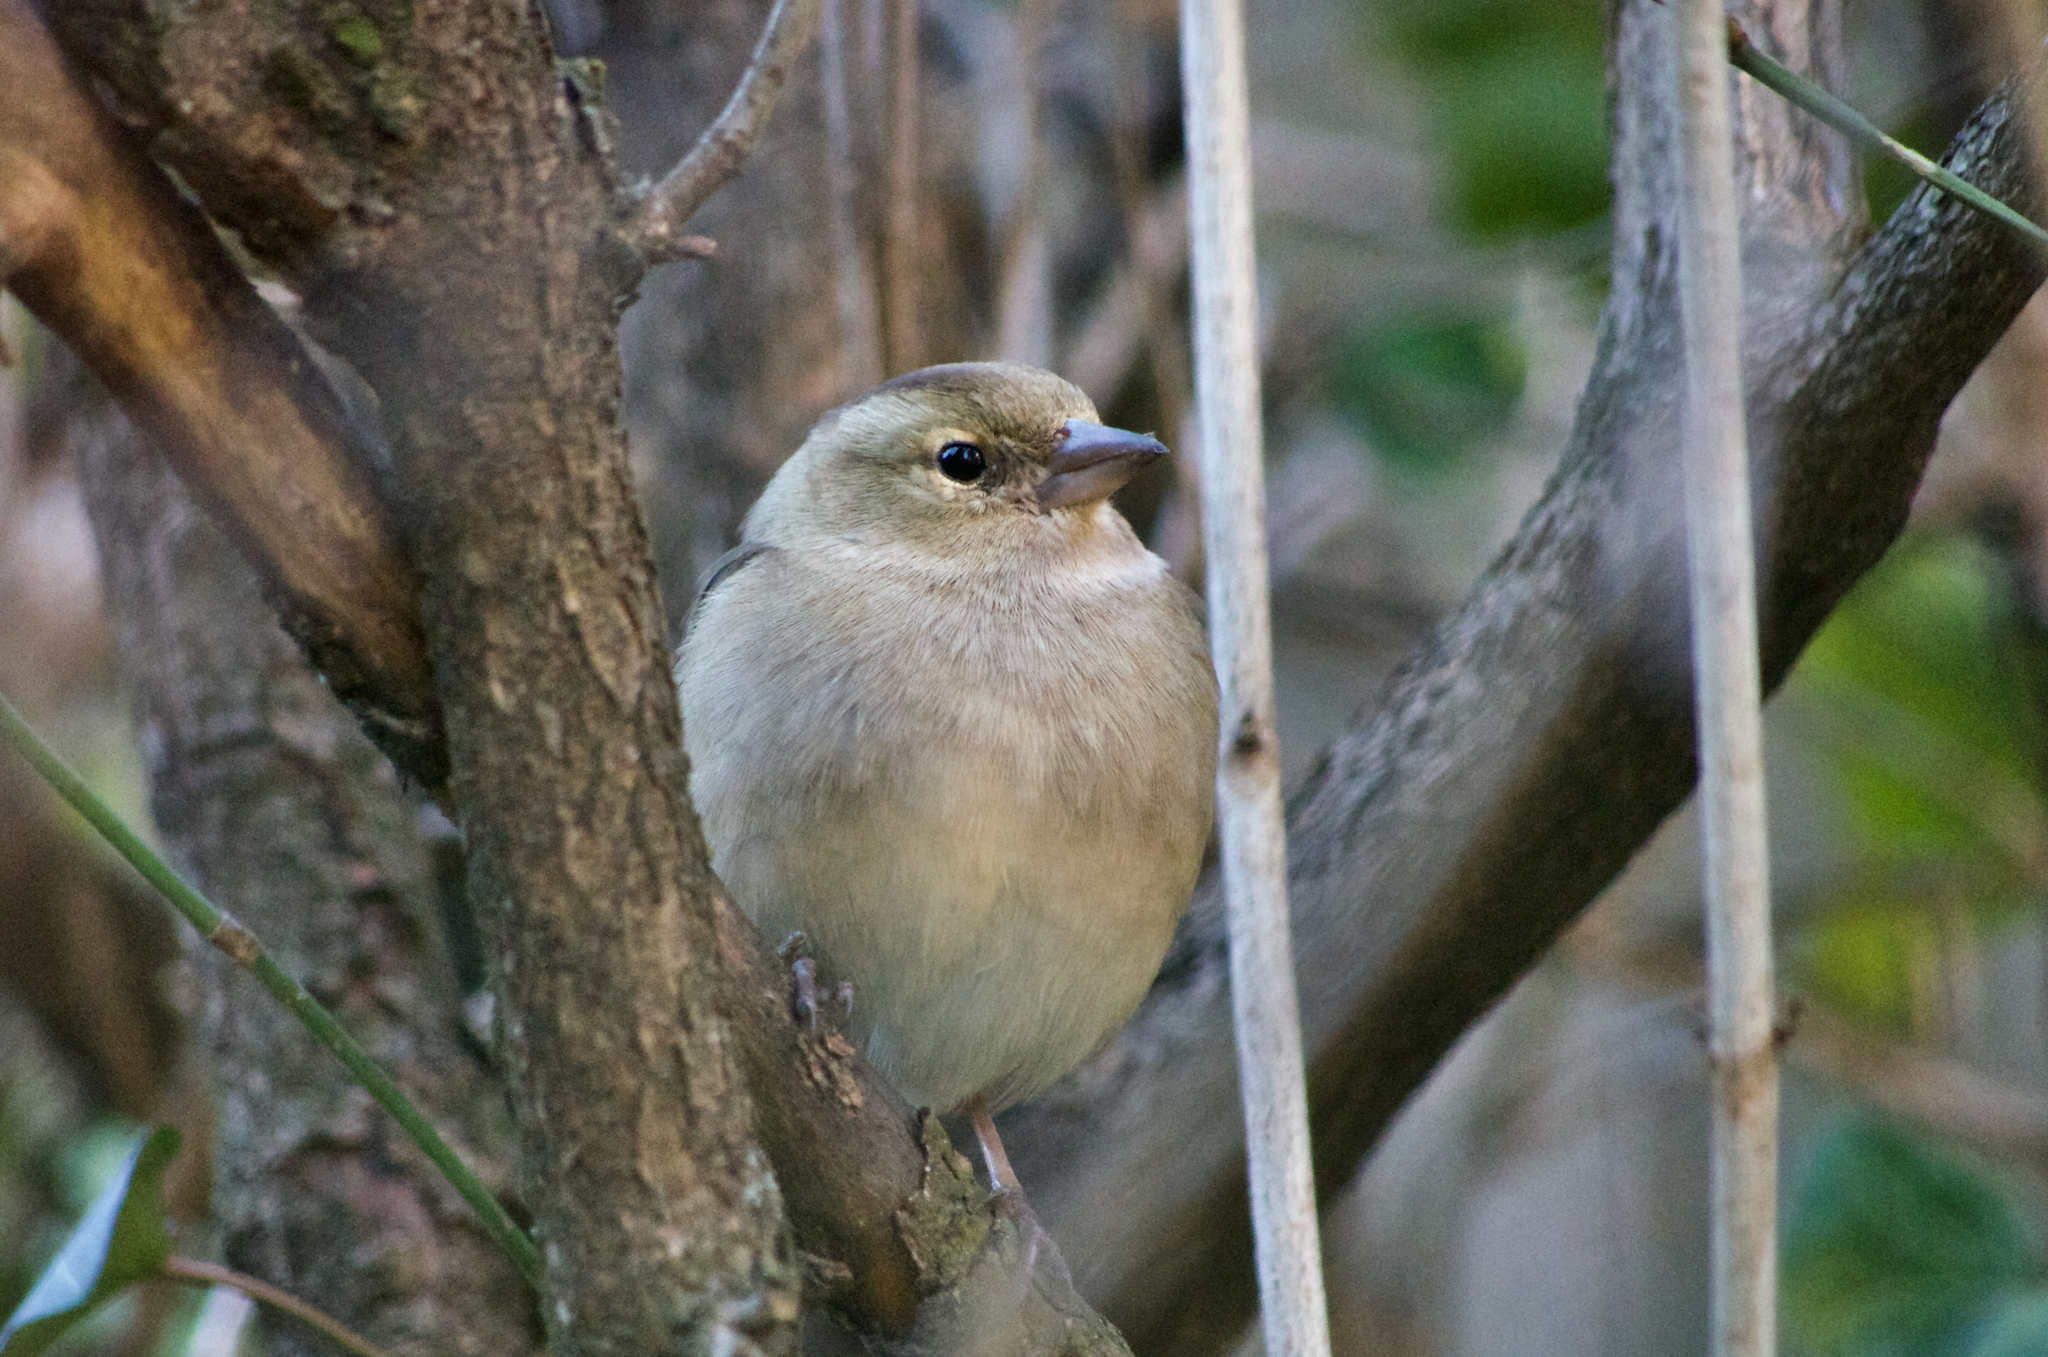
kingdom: Animalia
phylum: Chordata
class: Aves
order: Passeriformes
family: Fringillidae
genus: Fringilla
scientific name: Fringilla coelebs
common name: Common chaffinch
